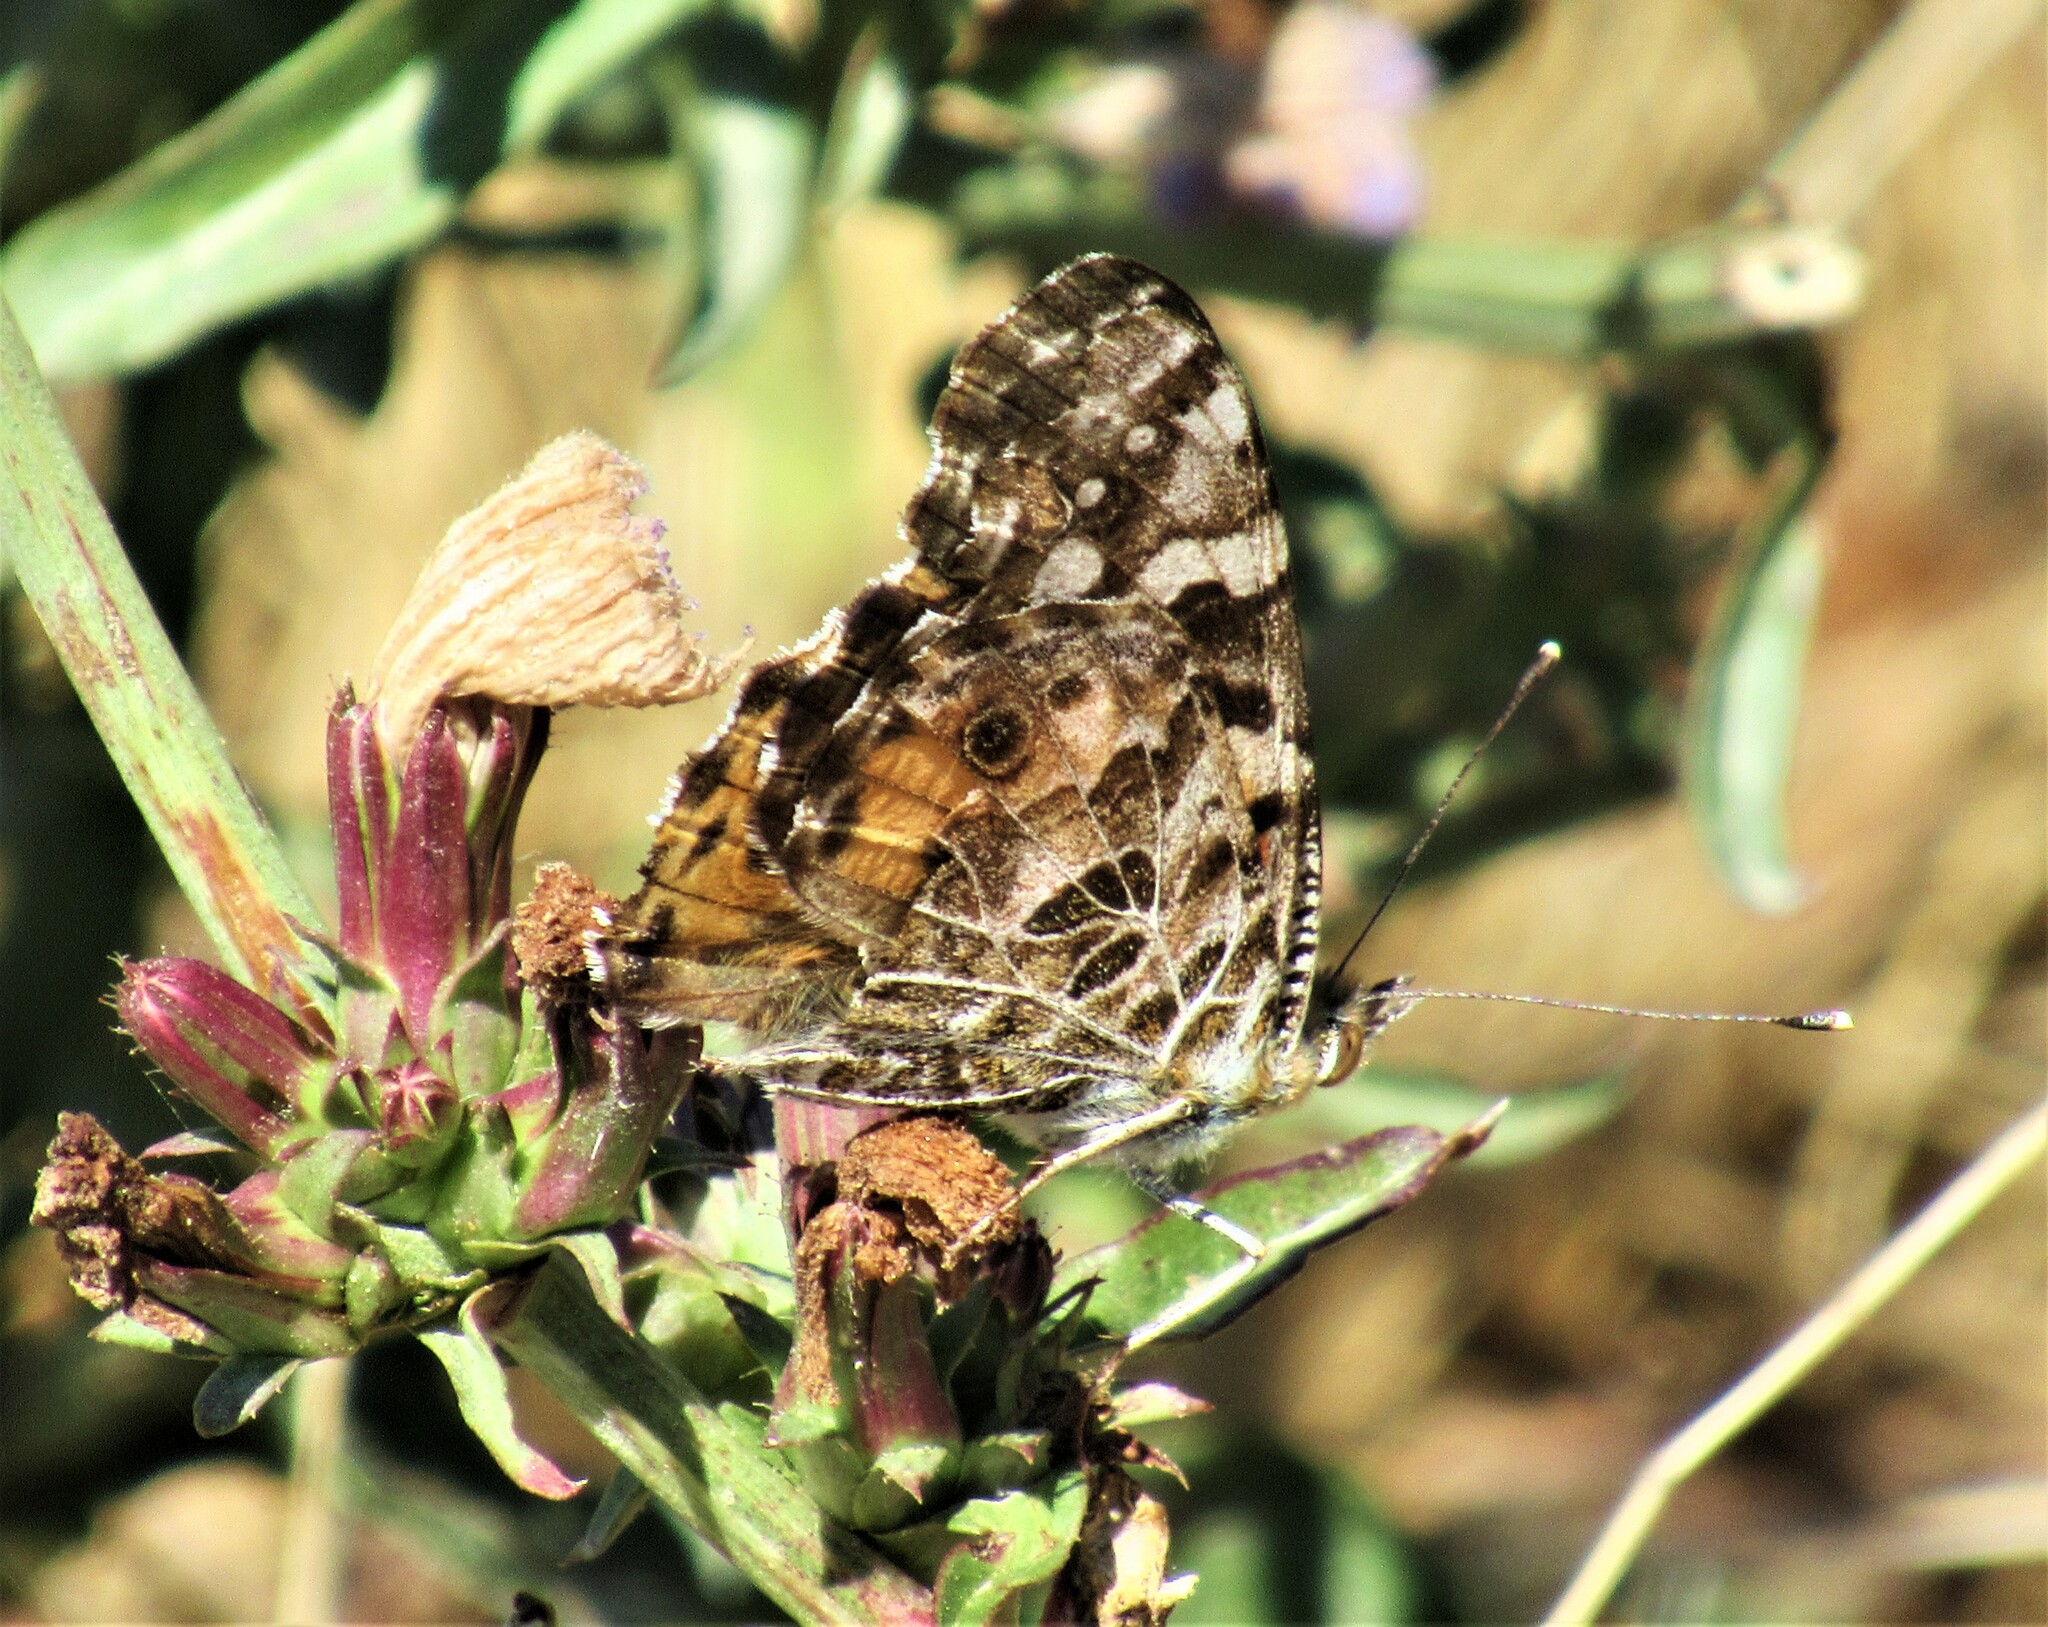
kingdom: Animalia
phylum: Arthropoda
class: Insecta
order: Lepidoptera
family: Nymphalidae
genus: Vanessa
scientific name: Vanessa cardui
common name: Painted lady
